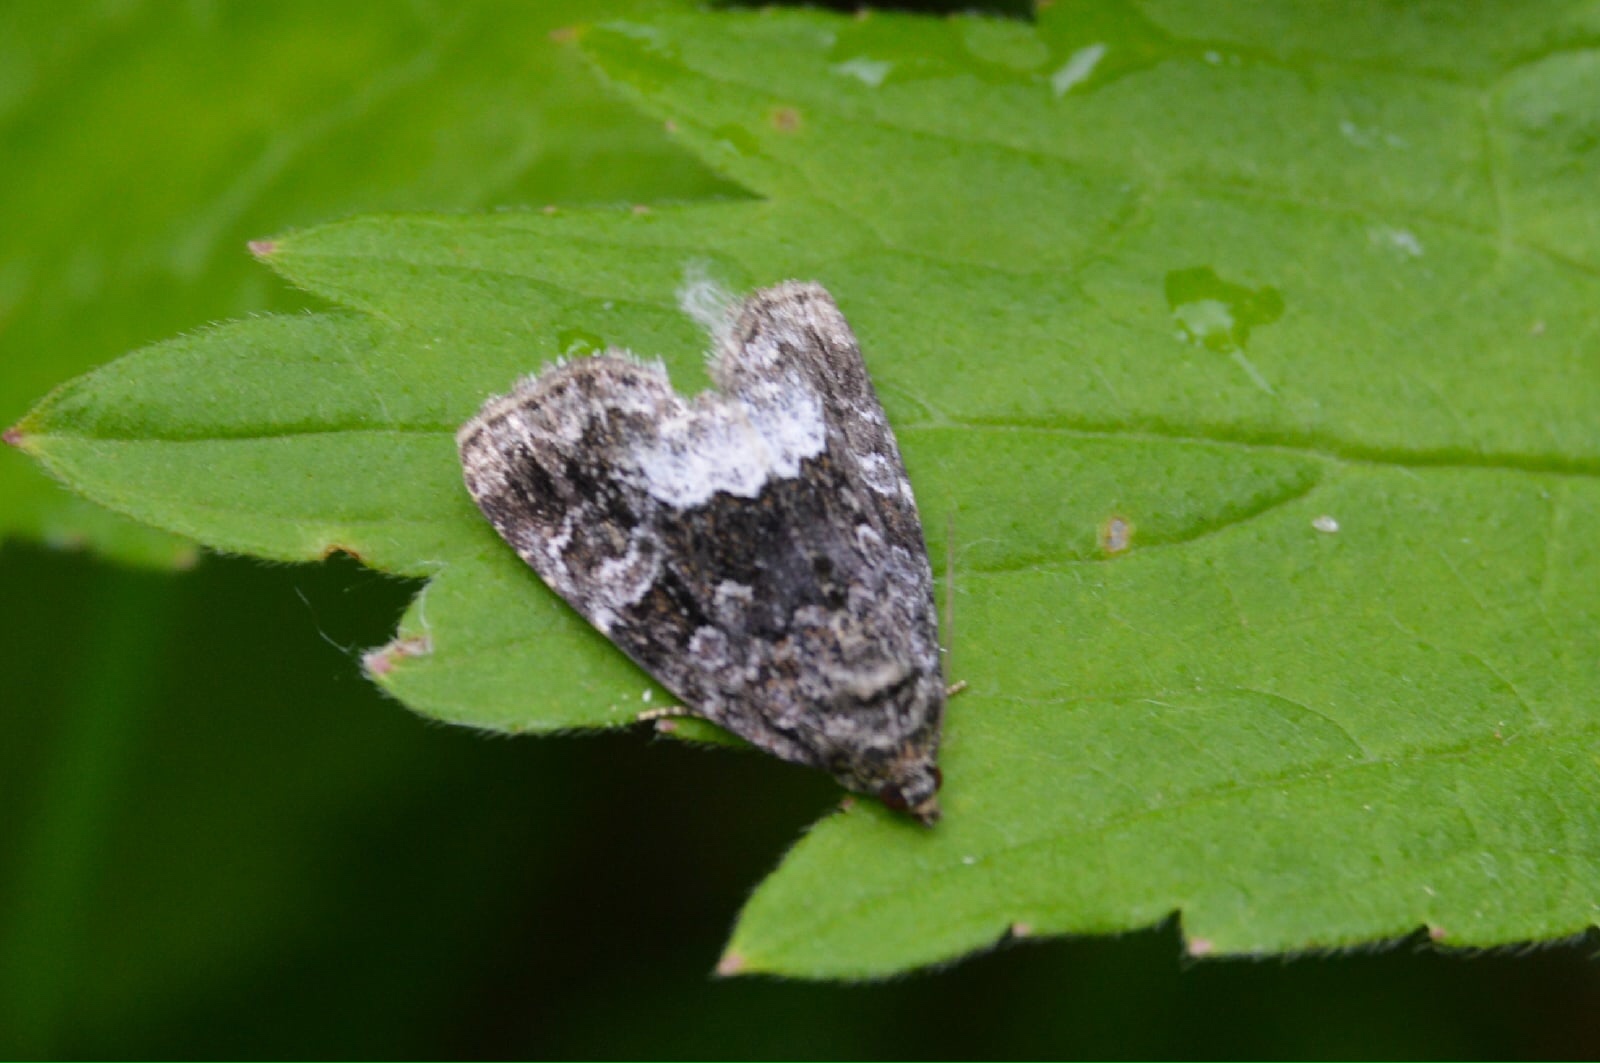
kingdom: Animalia
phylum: Arthropoda
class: Insecta
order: Lepidoptera
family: Noctuidae
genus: Deltote
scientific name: Deltote pygarga
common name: Marbled white spot
